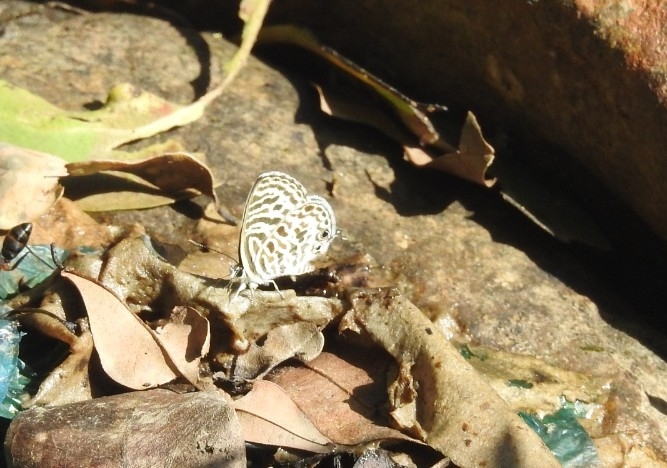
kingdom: Animalia
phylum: Arthropoda
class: Insecta
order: Lepidoptera
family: Lycaenidae
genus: Leptotes
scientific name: Leptotes plinius
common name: Zebra blue
